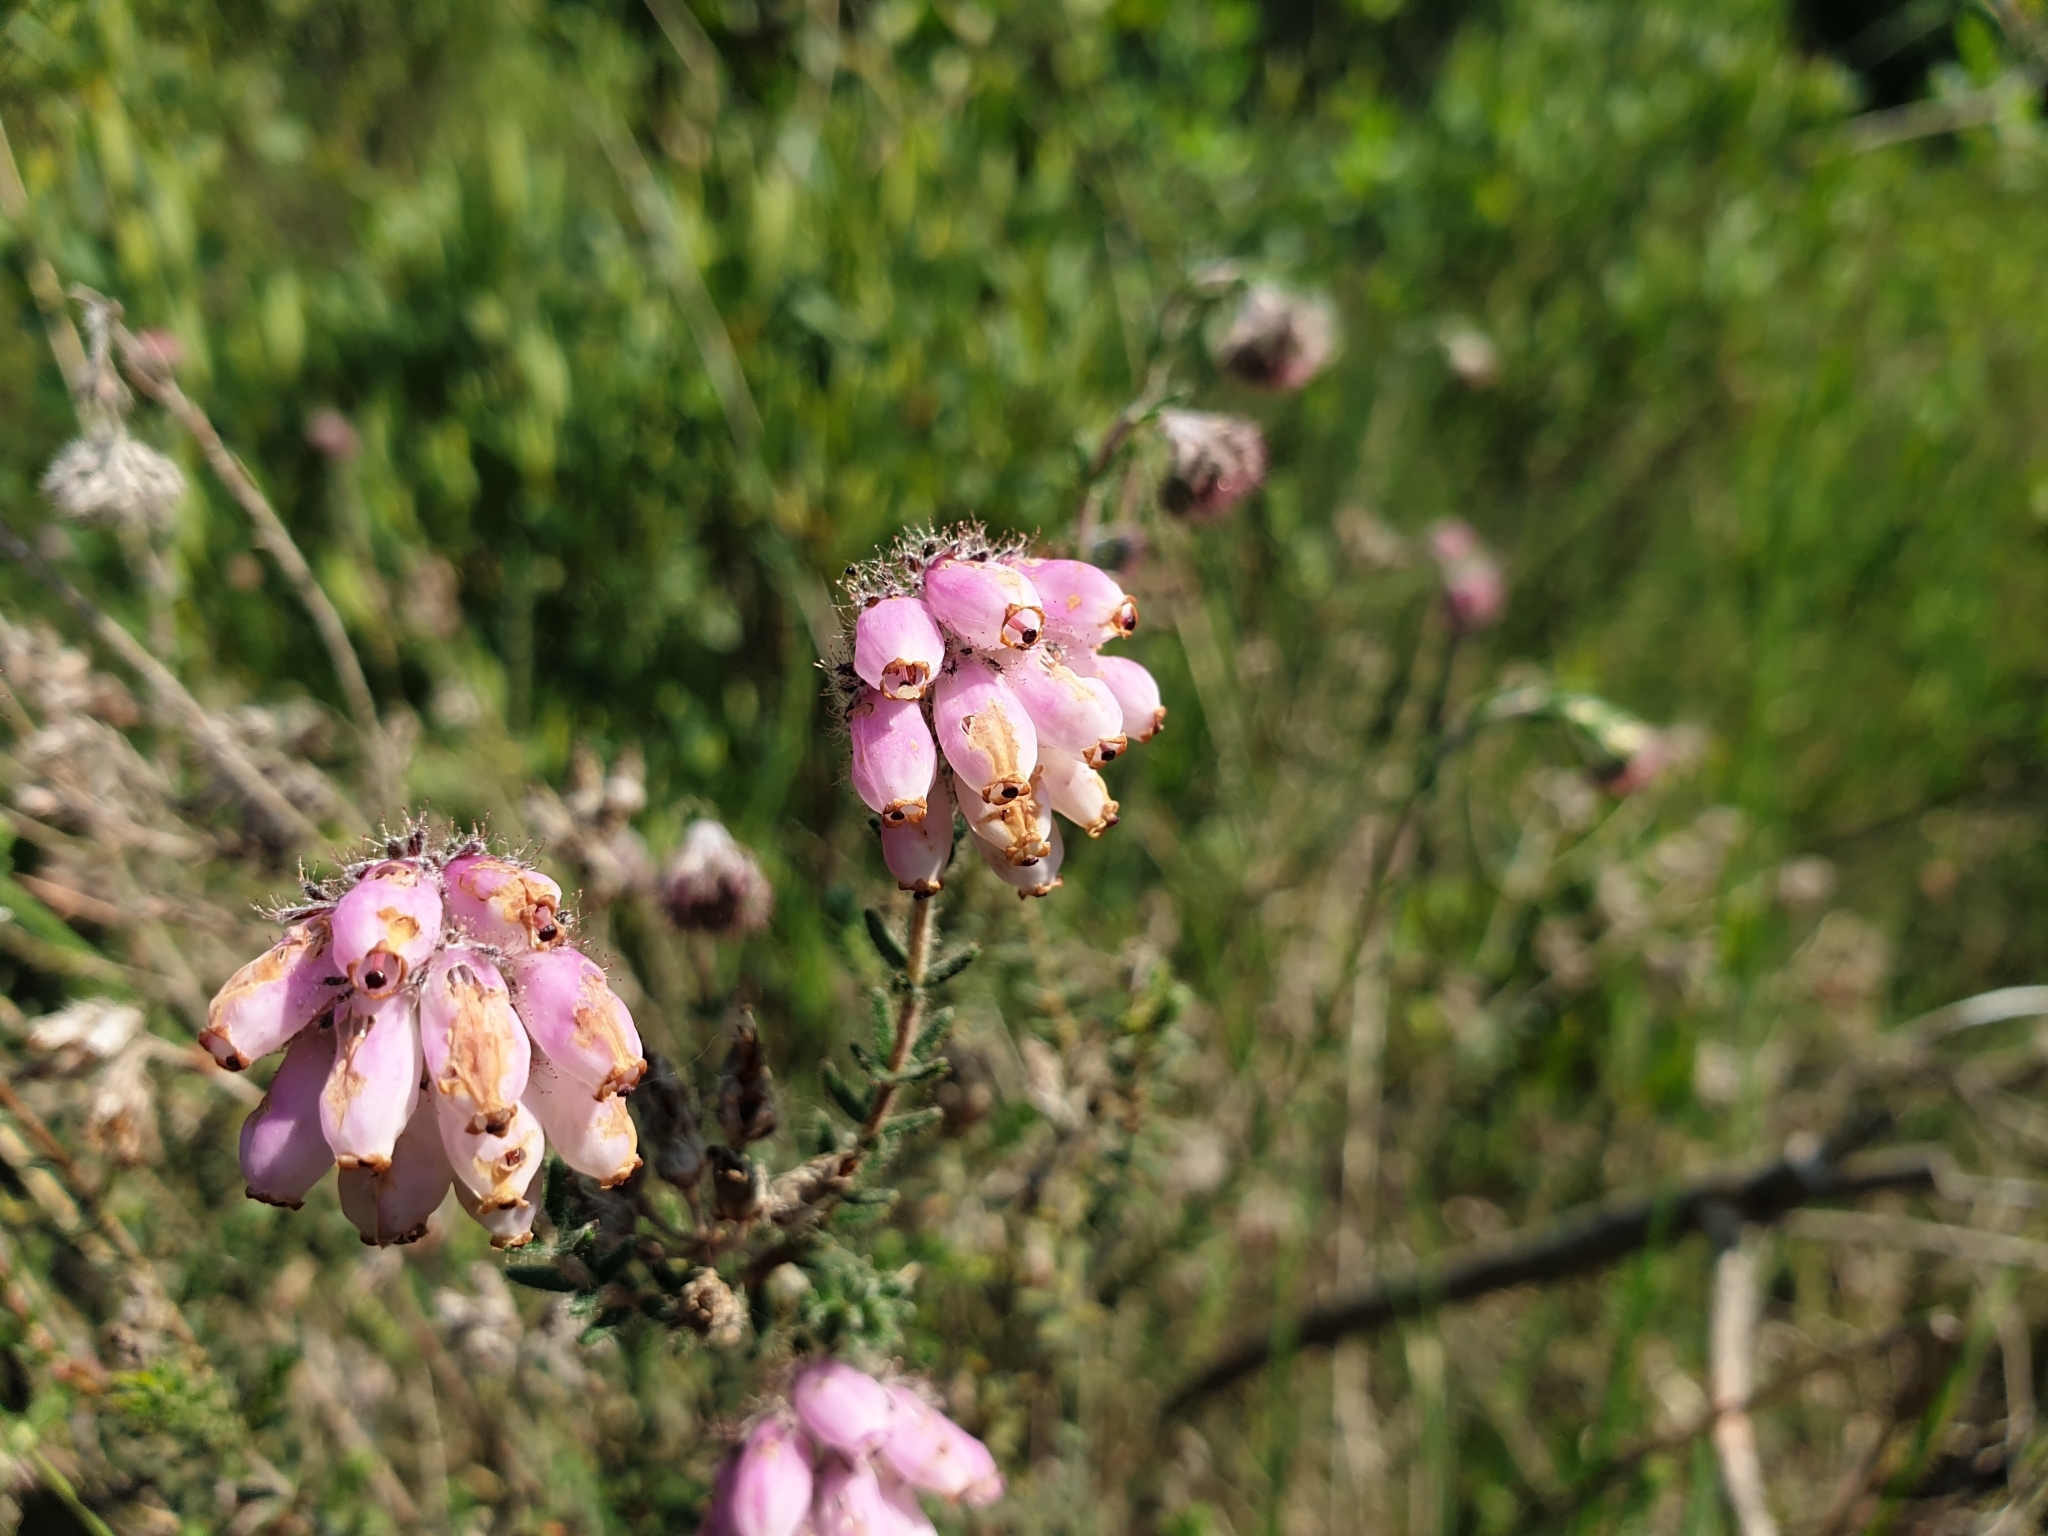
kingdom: Plantae
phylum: Tracheophyta
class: Magnoliopsida
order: Ericales
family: Ericaceae
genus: Erica
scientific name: Erica tetralix
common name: Cross-leaved heath
